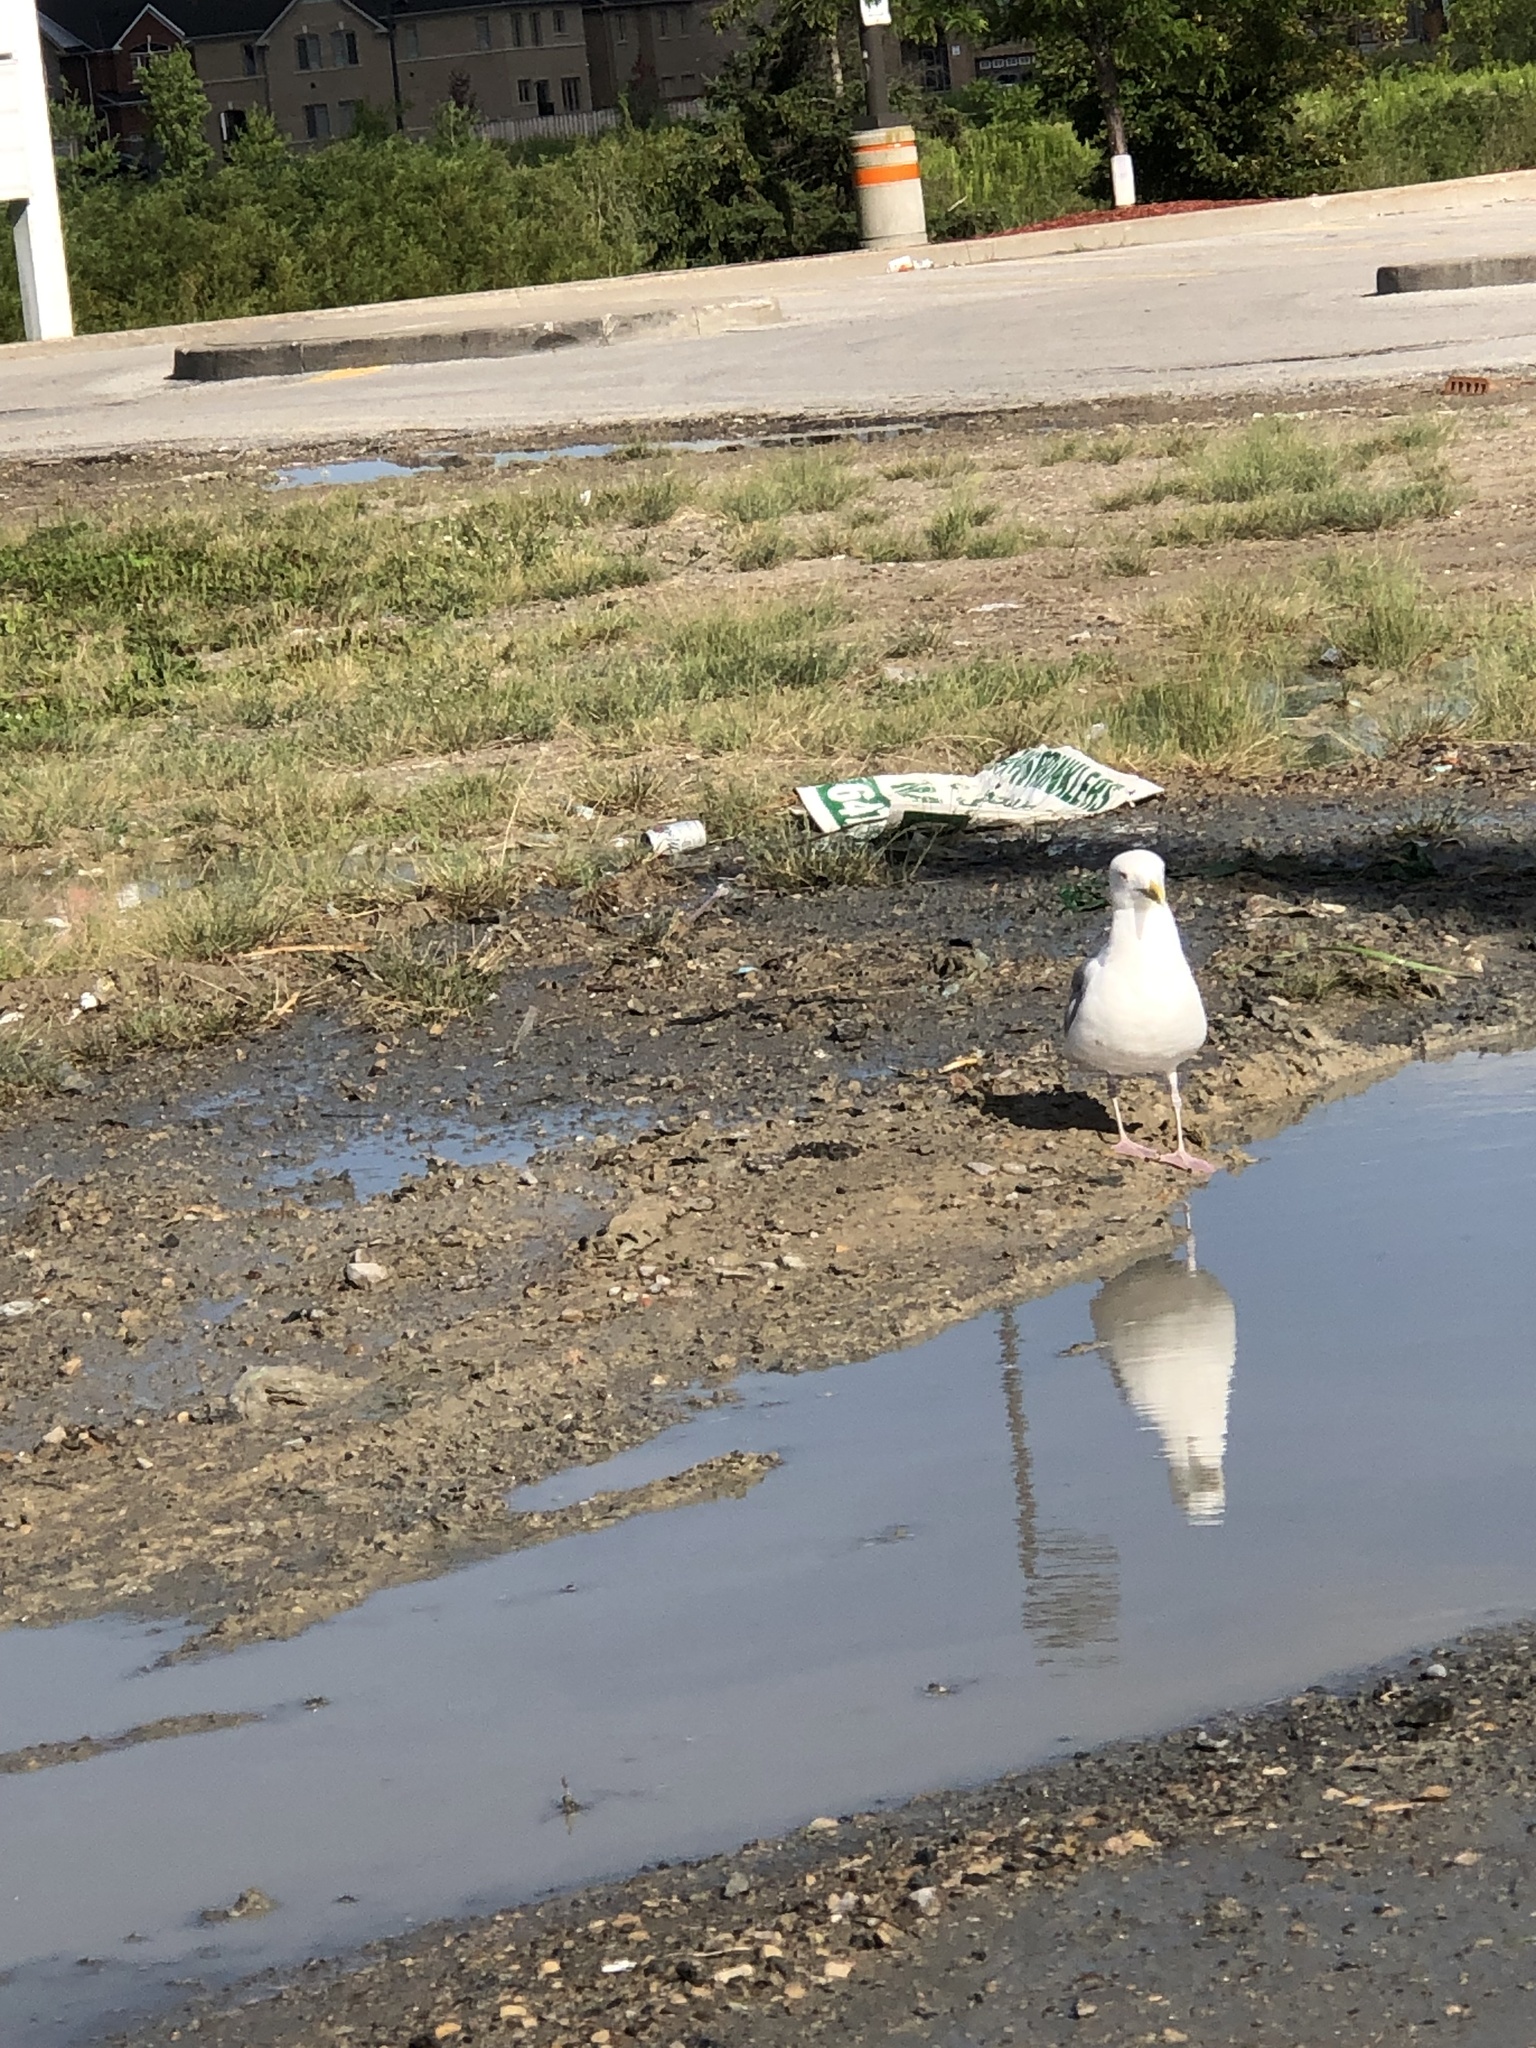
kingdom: Animalia
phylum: Chordata
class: Aves
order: Charadriiformes
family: Laridae
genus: Larus
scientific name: Larus delawarensis
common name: Ring-billed gull
